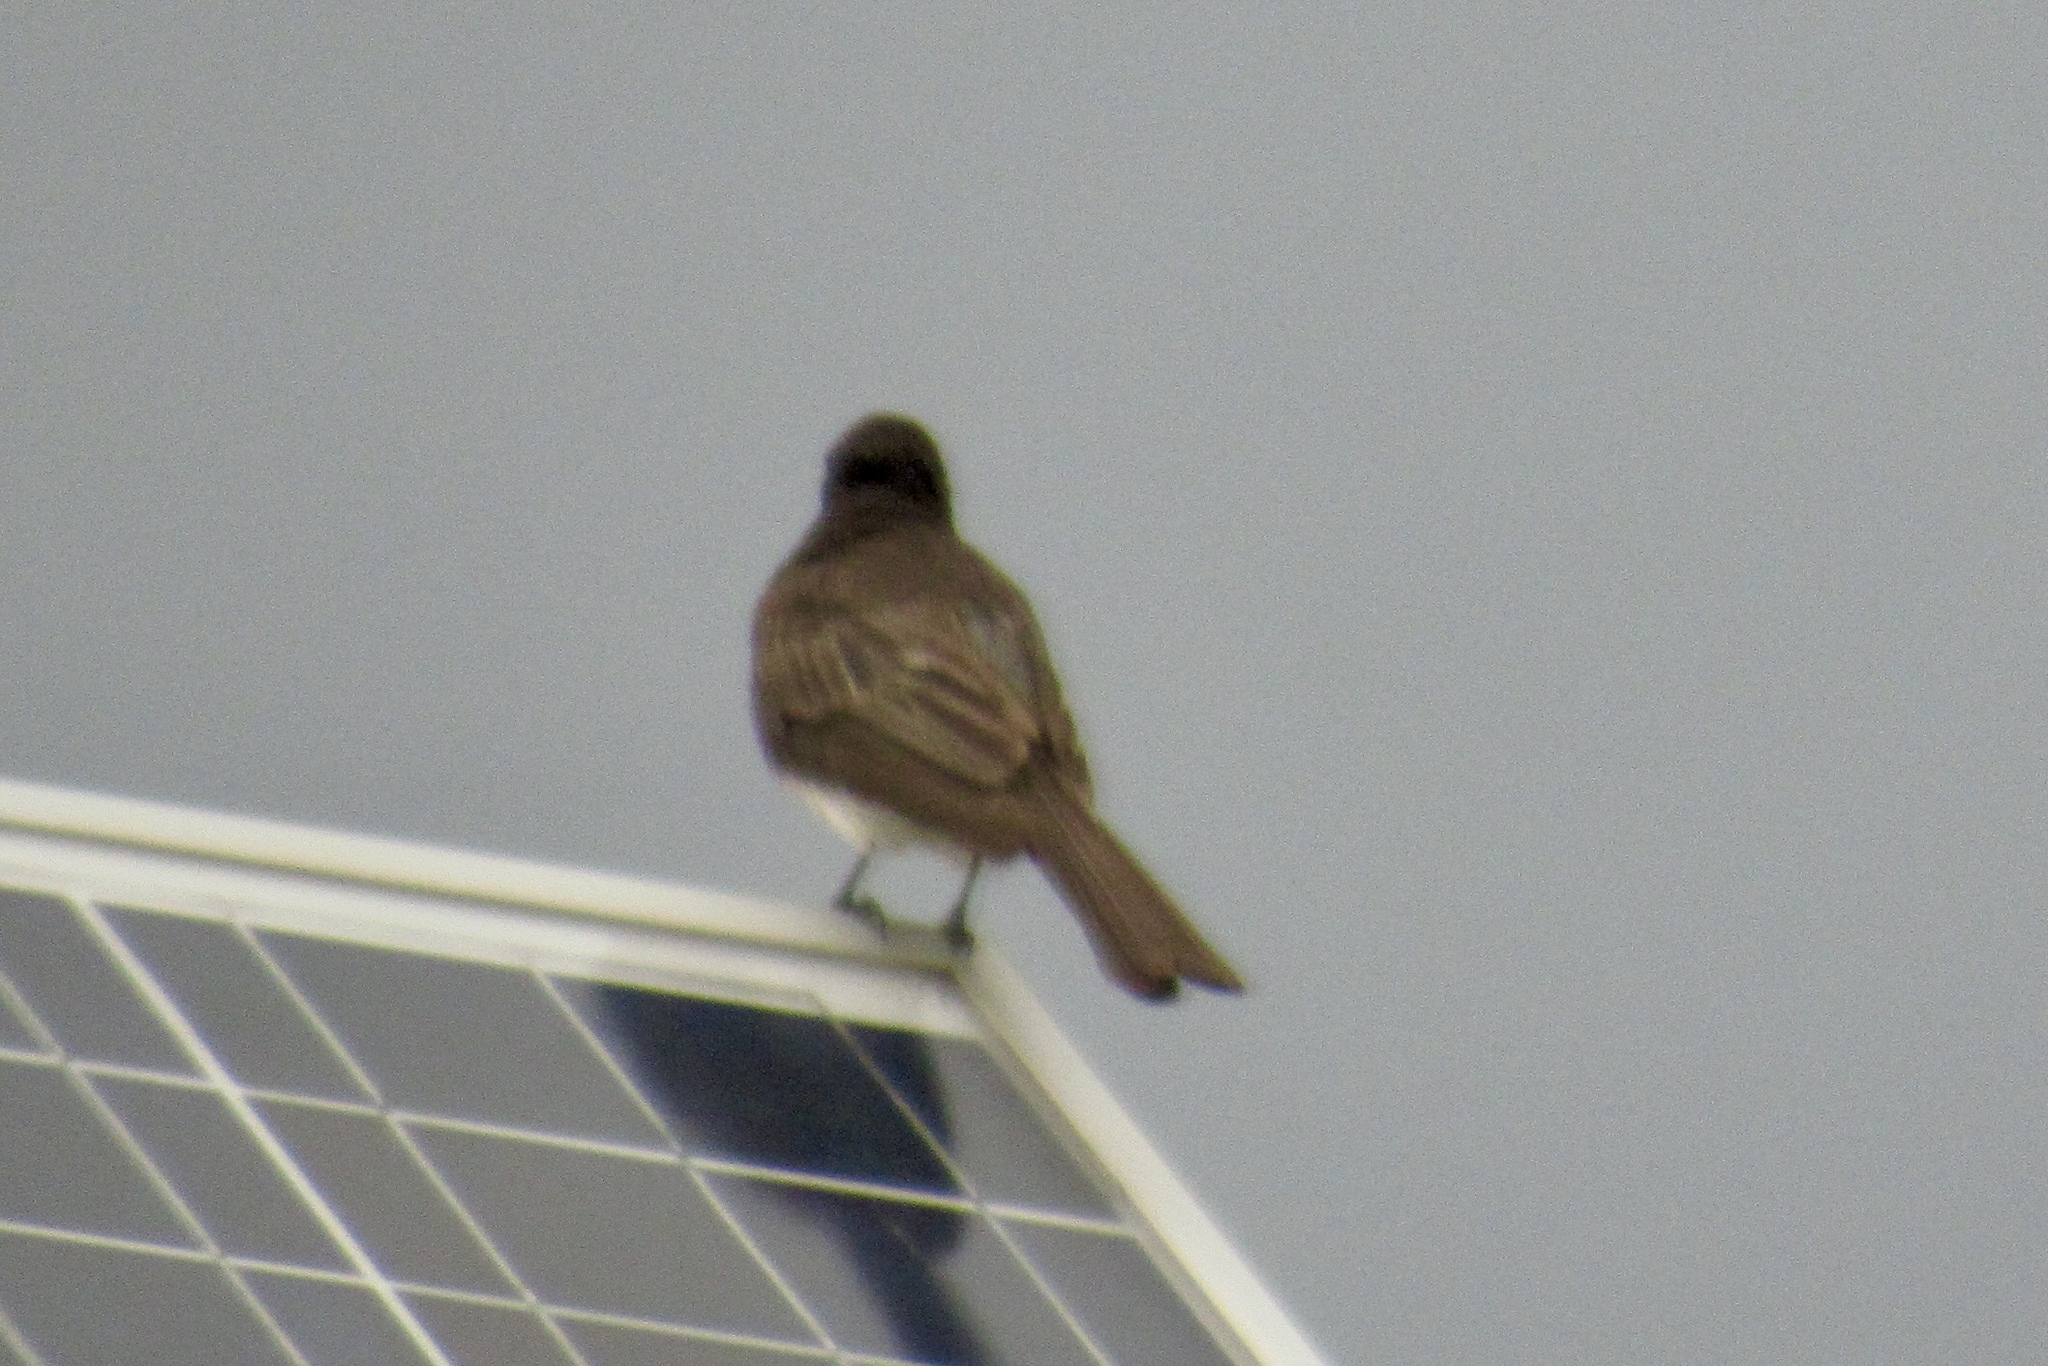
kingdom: Animalia
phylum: Chordata
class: Aves
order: Passeriformes
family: Tyrannidae
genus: Sayornis
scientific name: Sayornis nigricans
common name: Black phoebe
